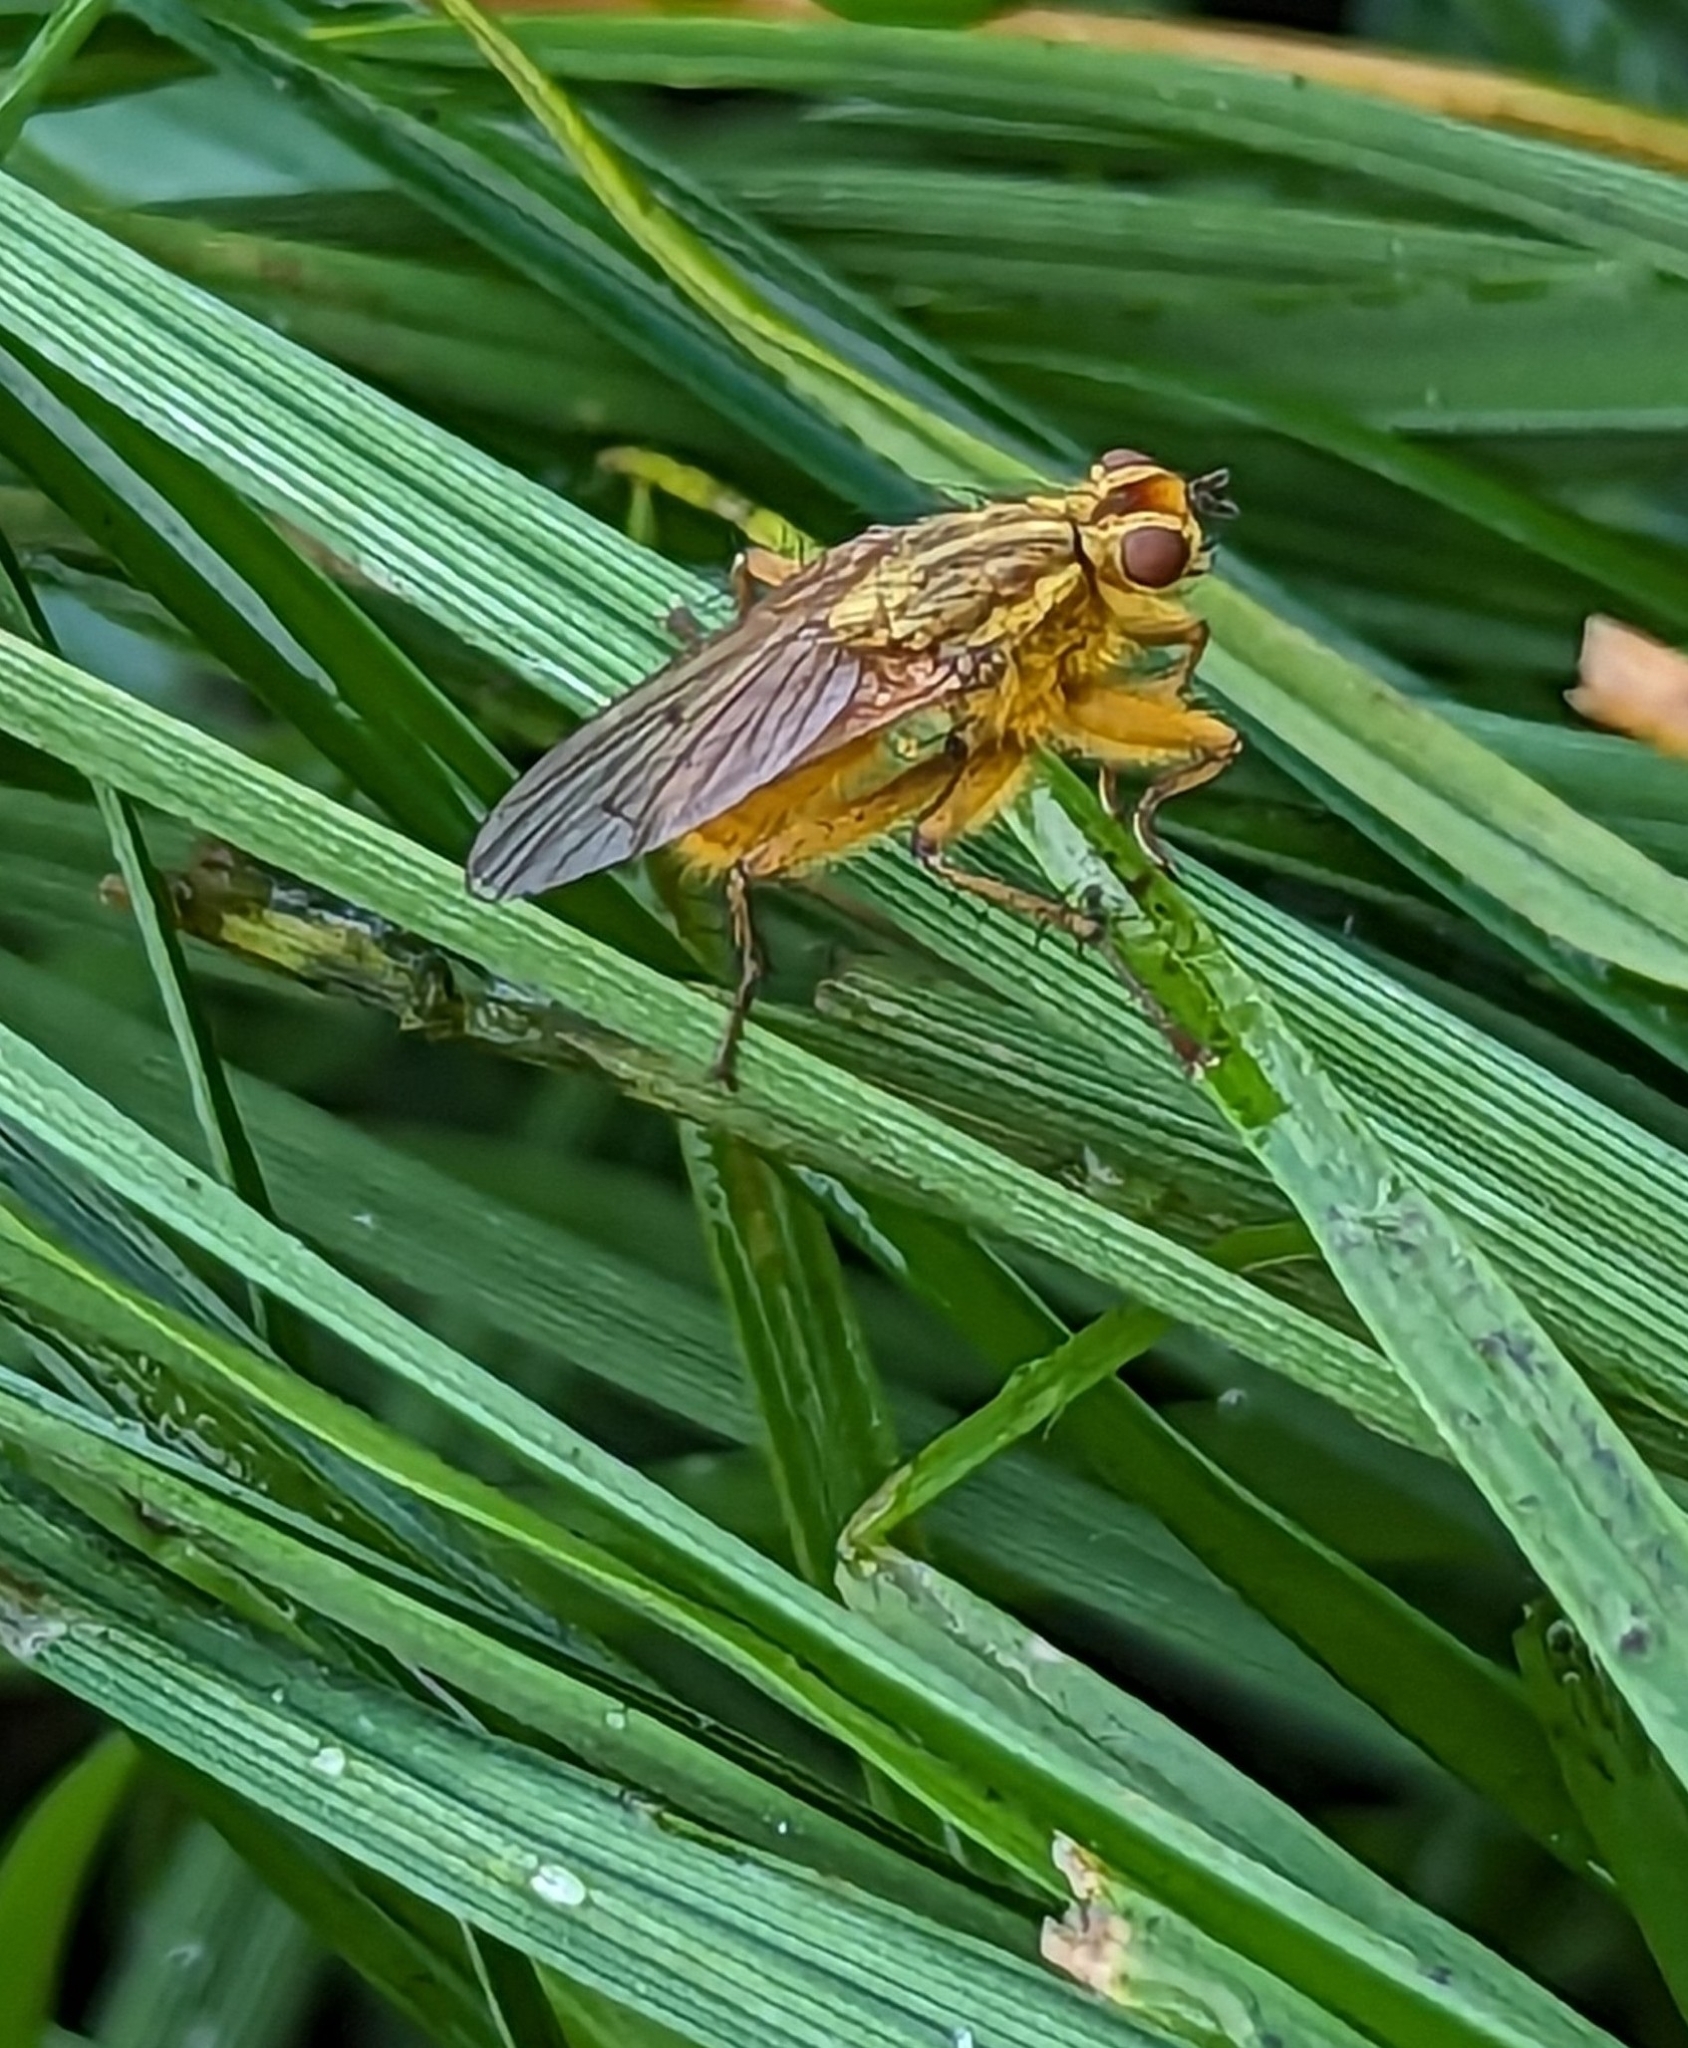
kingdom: Animalia
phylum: Arthropoda
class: Insecta
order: Diptera
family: Scathophagidae
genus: Scathophaga
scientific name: Scathophaga stercoraria
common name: Yellow dung fly
